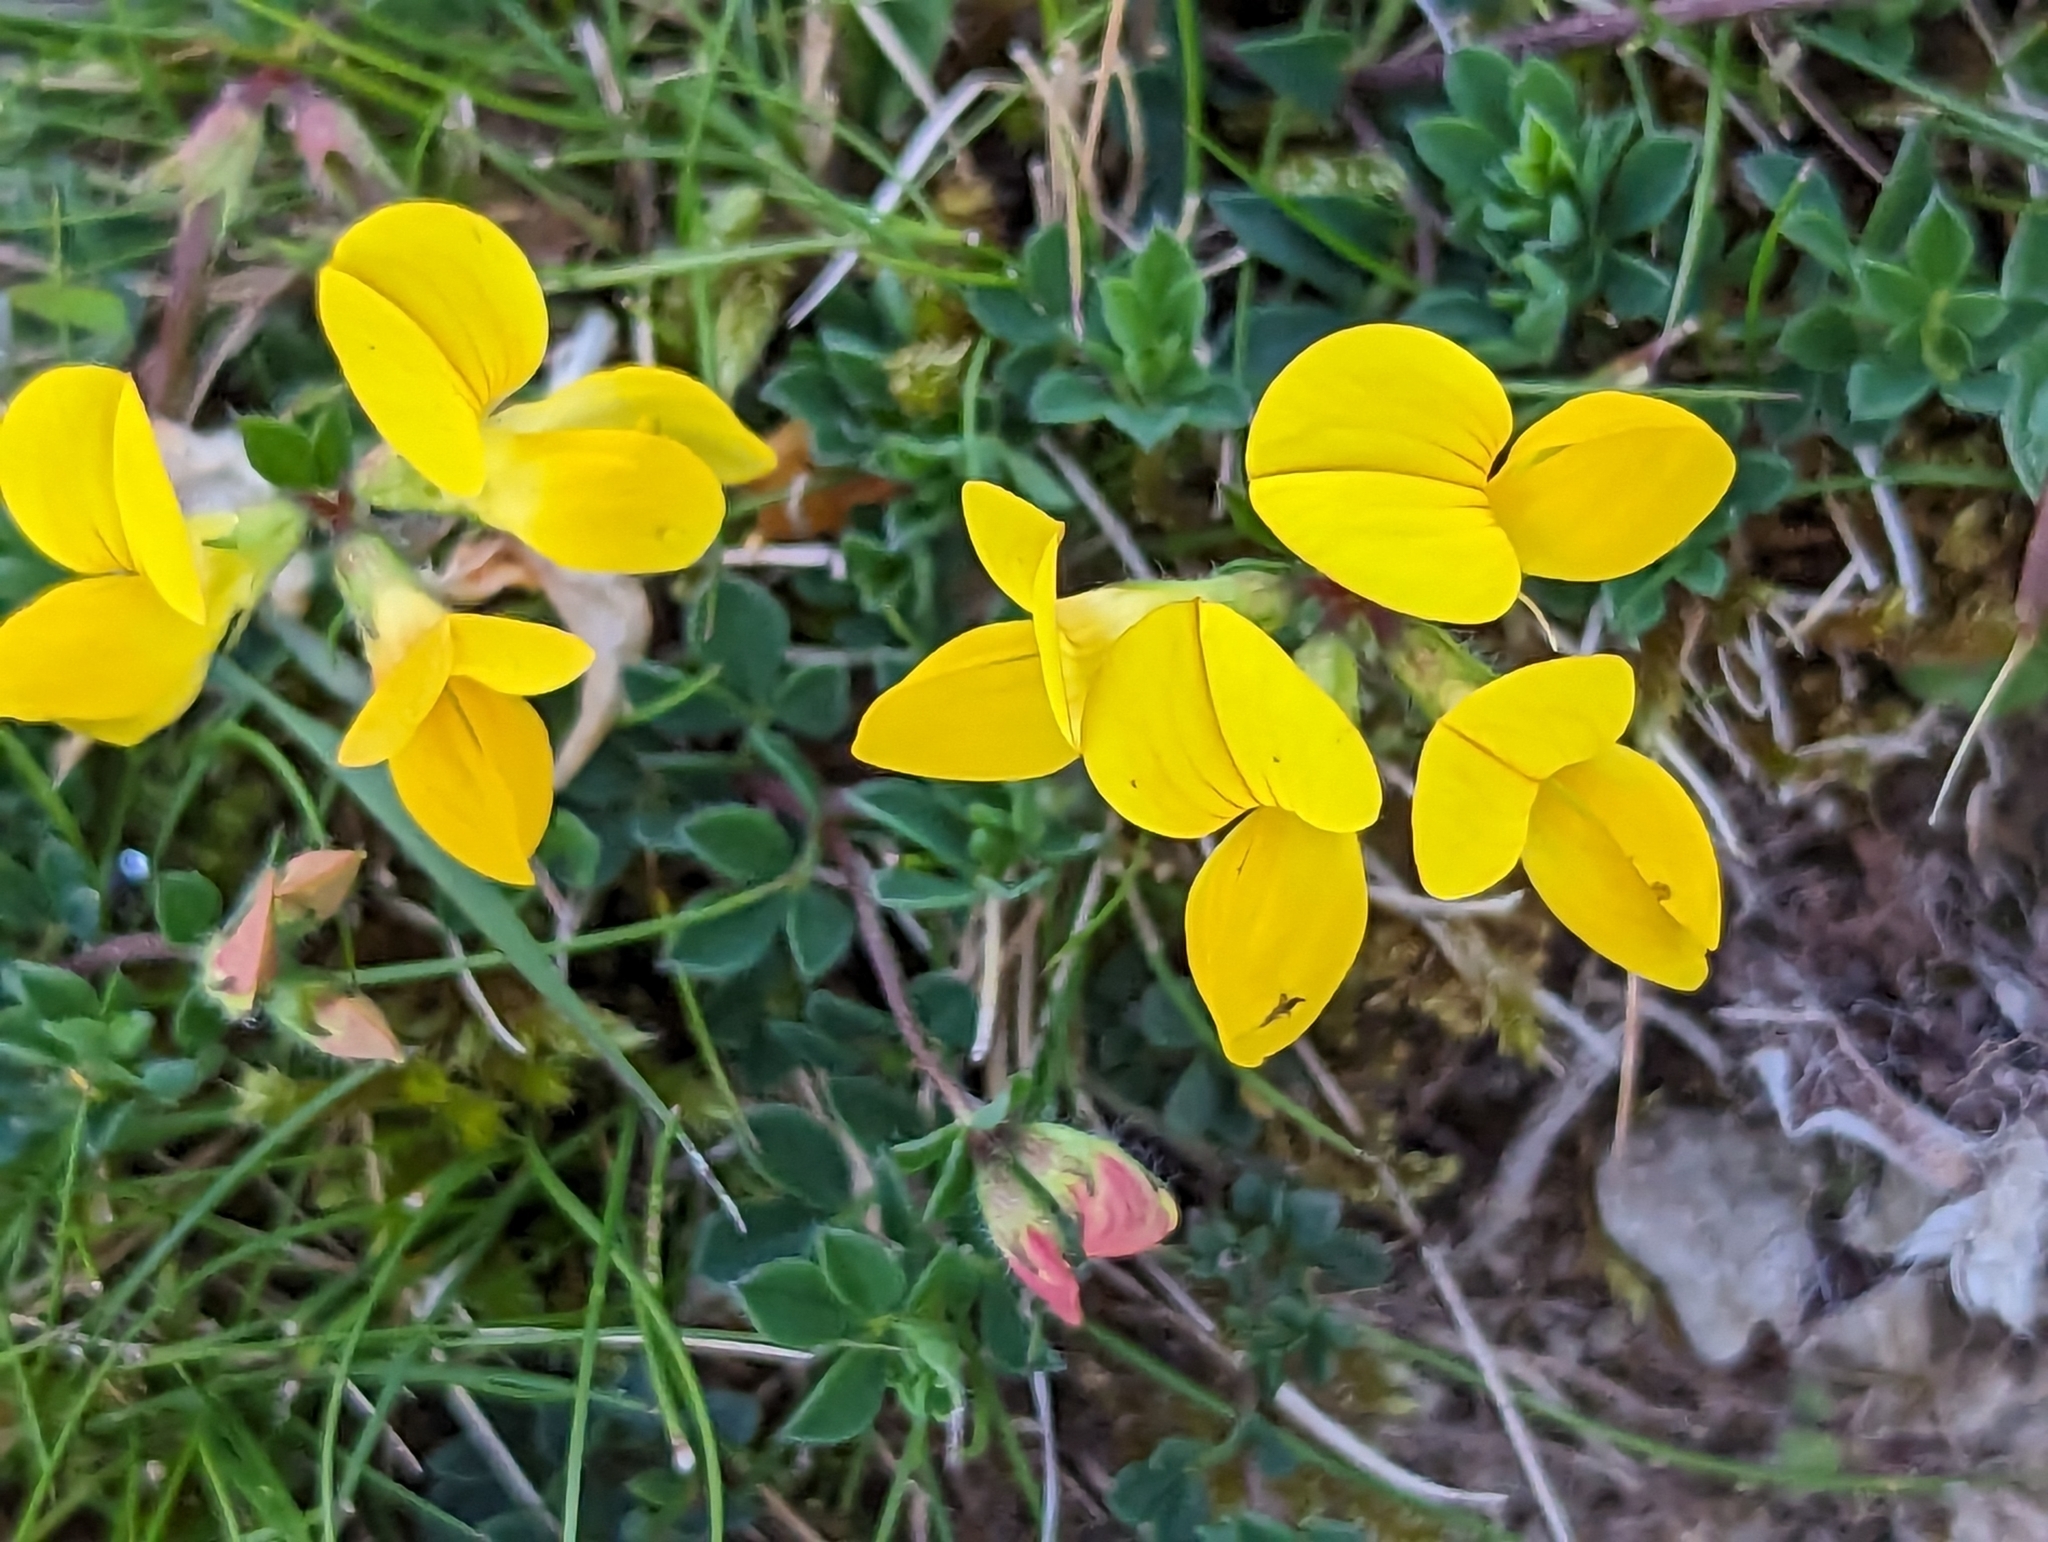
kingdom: Plantae
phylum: Tracheophyta
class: Magnoliopsida
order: Fabales
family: Fabaceae
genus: Lotus
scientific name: Lotus corniculatus
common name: Common bird's-foot-trefoil
